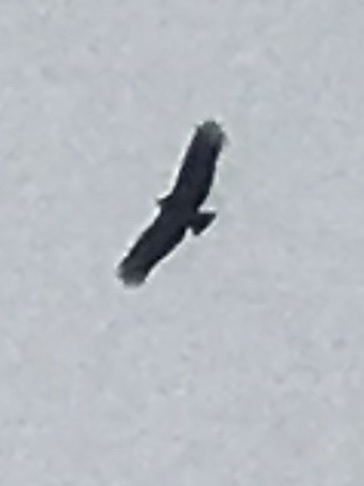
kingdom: Animalia
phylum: Chordata
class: Aves
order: Accipitriformes
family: Cathartidae
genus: Coragyps
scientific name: Coragyps atratus
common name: Black vulture
